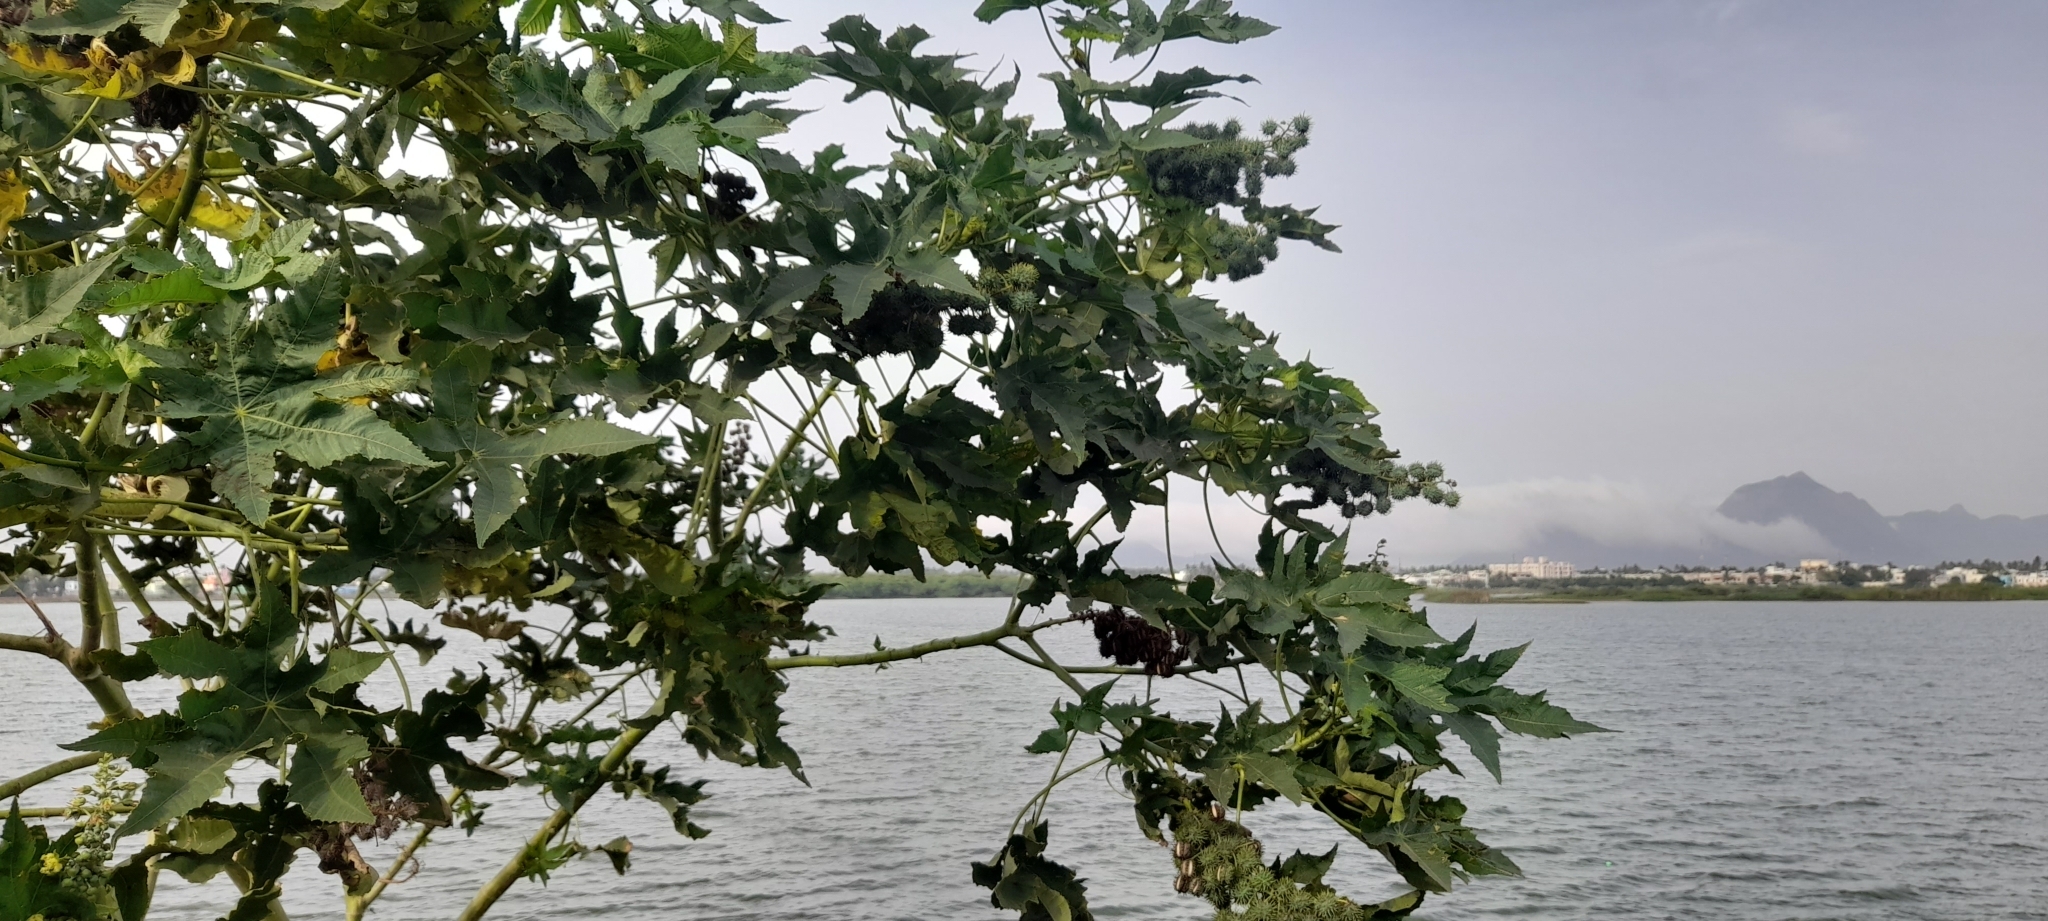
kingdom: Plantae
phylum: Tracheophyta
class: Magnoliopsida
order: Malpighiales
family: Euphorbiaceae
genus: Ricinus
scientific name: Ricinus communis
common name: Castor-oil-plant
